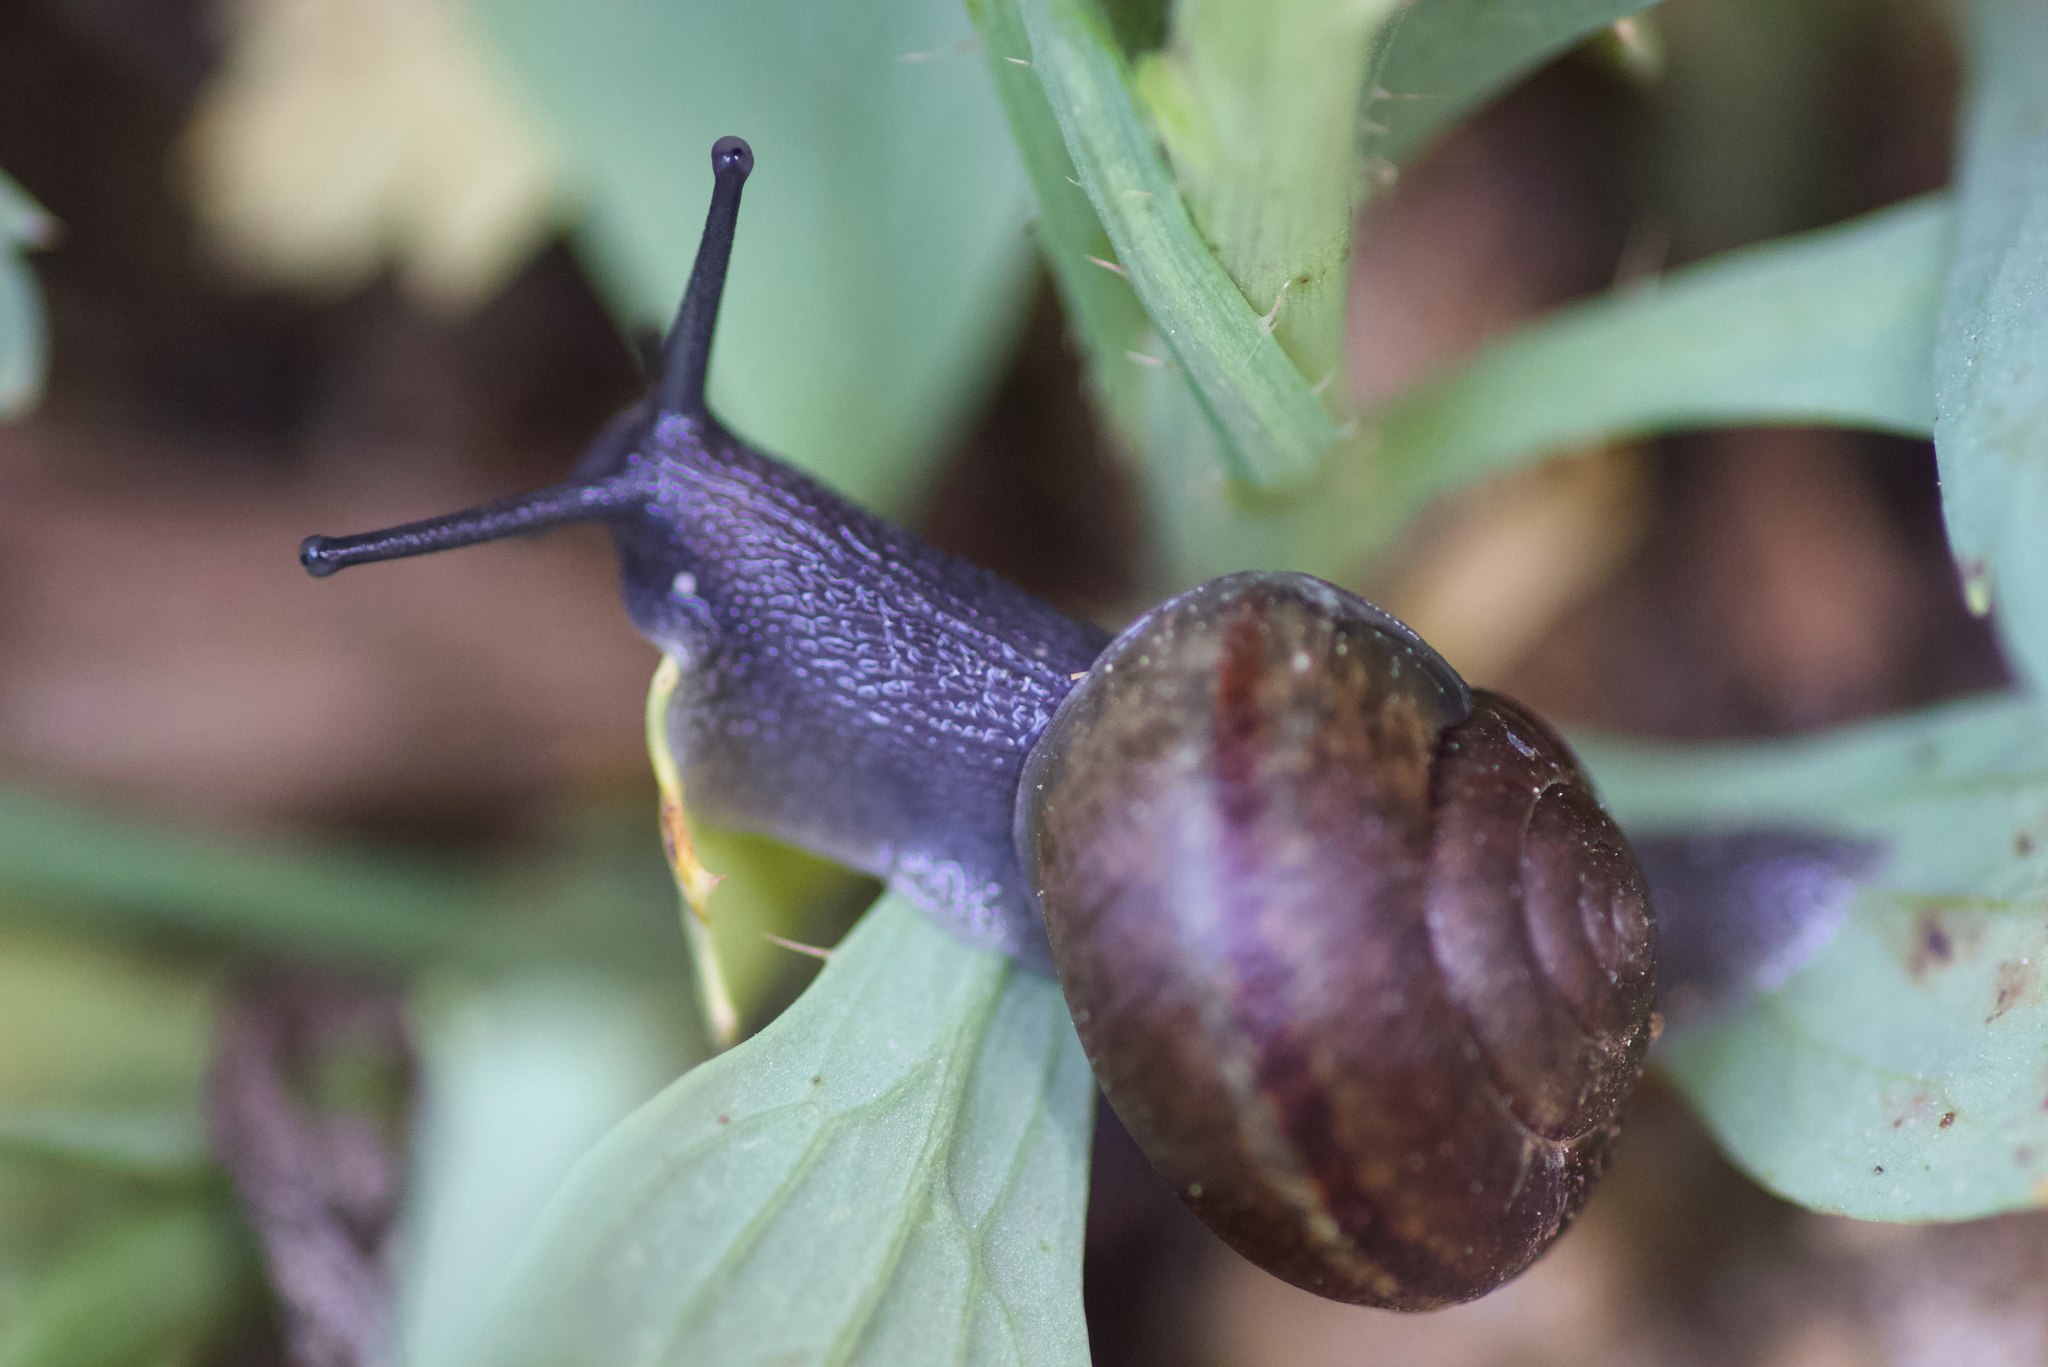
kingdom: Animalia
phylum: Mollusca
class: Gastropoda
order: Stylommatophora
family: Xanthonychidae
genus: Helminthoglypta
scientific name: Helminthoglypta tudiculata
